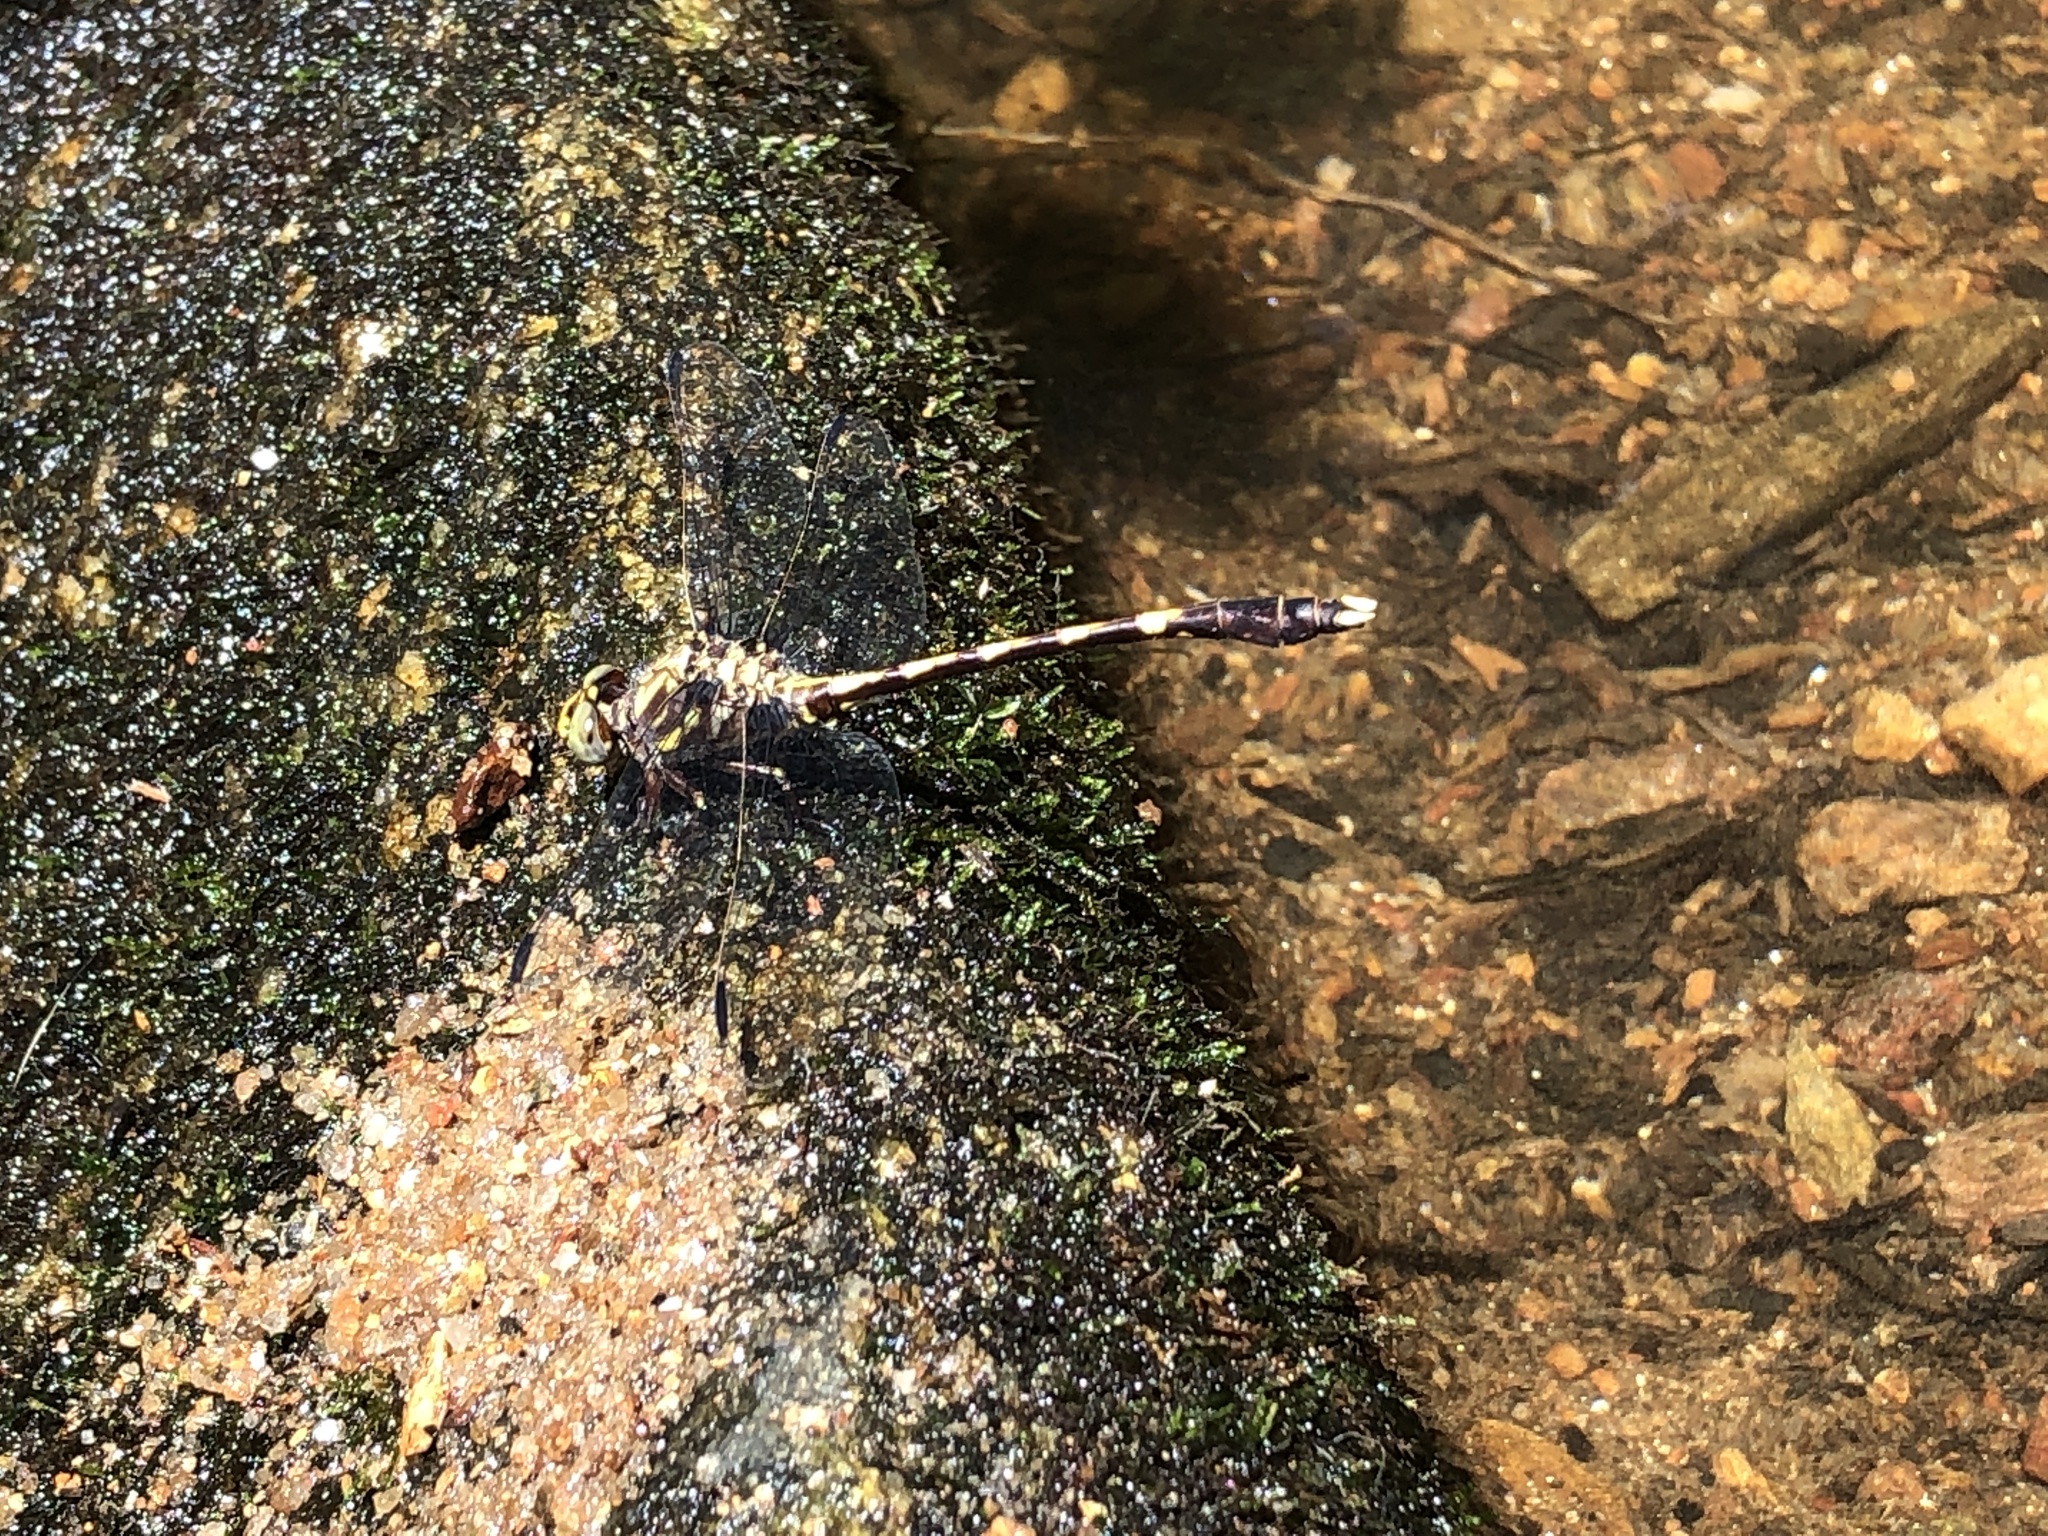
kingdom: Animalia
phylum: Arthropoda
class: Insecta
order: Odonata
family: Gomphidae
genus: Progomphus
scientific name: Progomphus obscurus
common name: Common sanddragon
